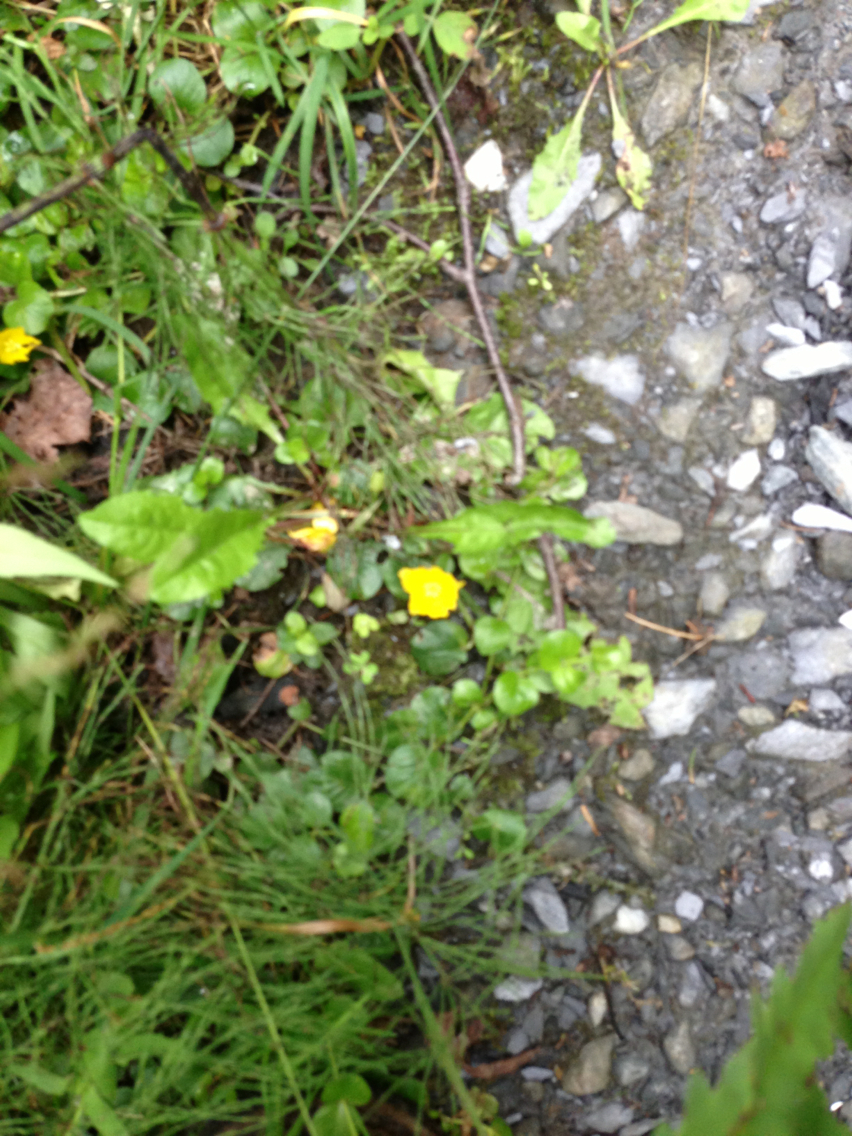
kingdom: Plantae
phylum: Tracheophyta
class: Magnoliopsida
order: Ericales
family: Primulaceae
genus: Lysimachia
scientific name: Lysimachia nummularia
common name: Moneywort
